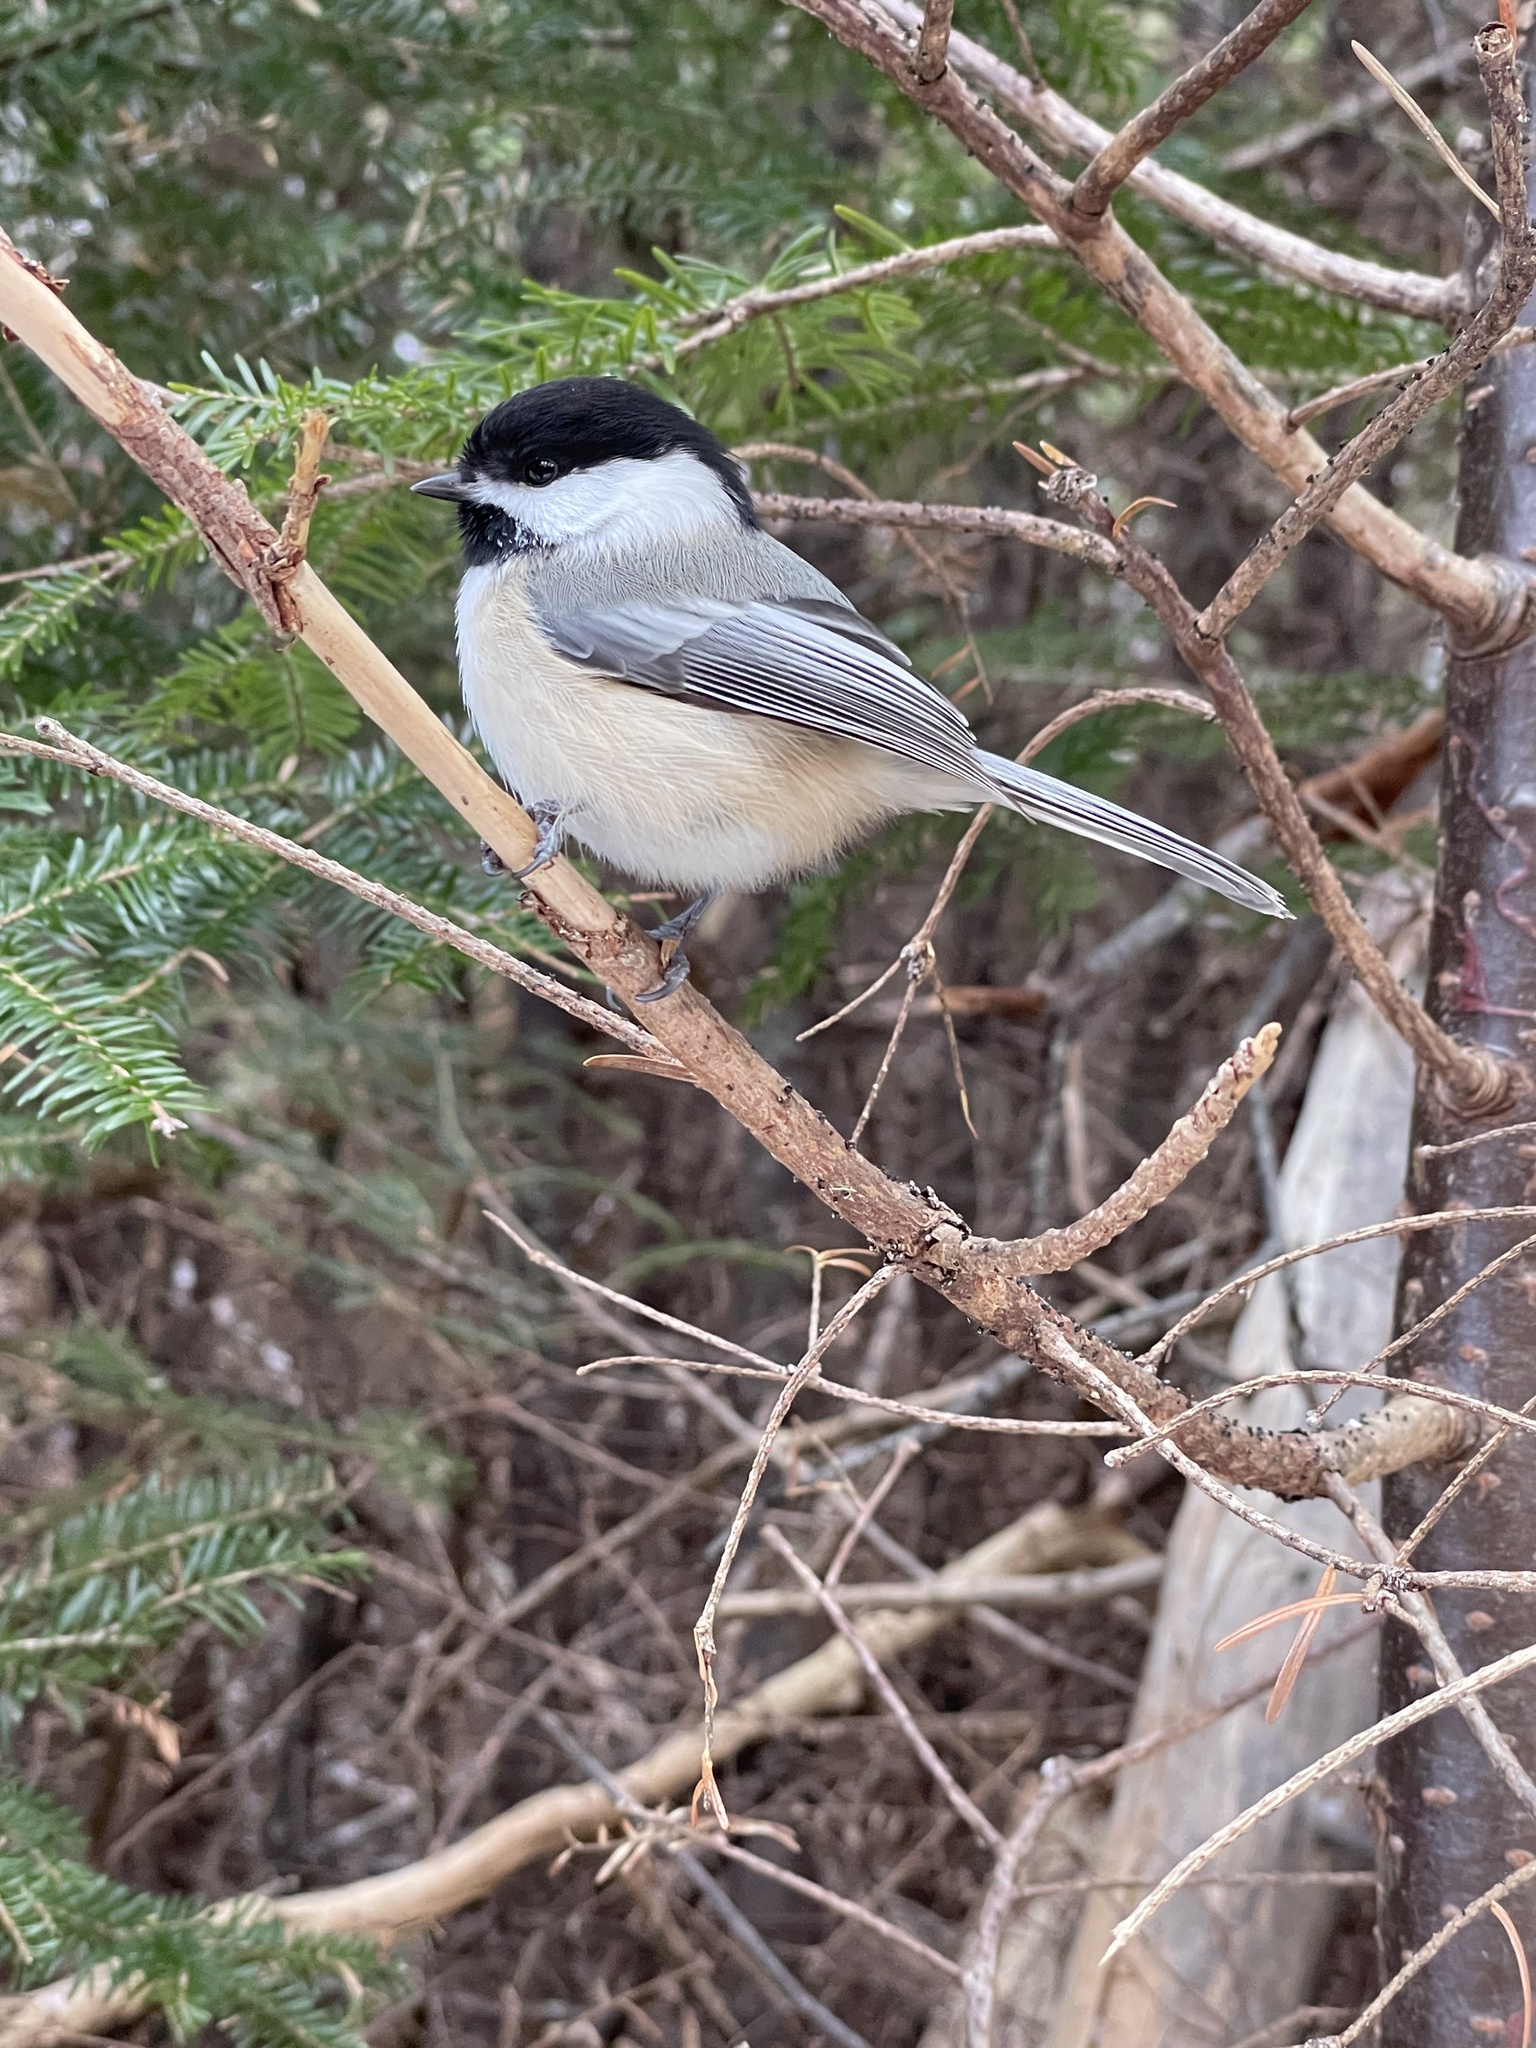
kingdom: Animalia
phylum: Chordata
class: Aves
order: Passeriformes
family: Paridae
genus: Poecile
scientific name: Poecile atricapillus
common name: Black-capped chickadee
